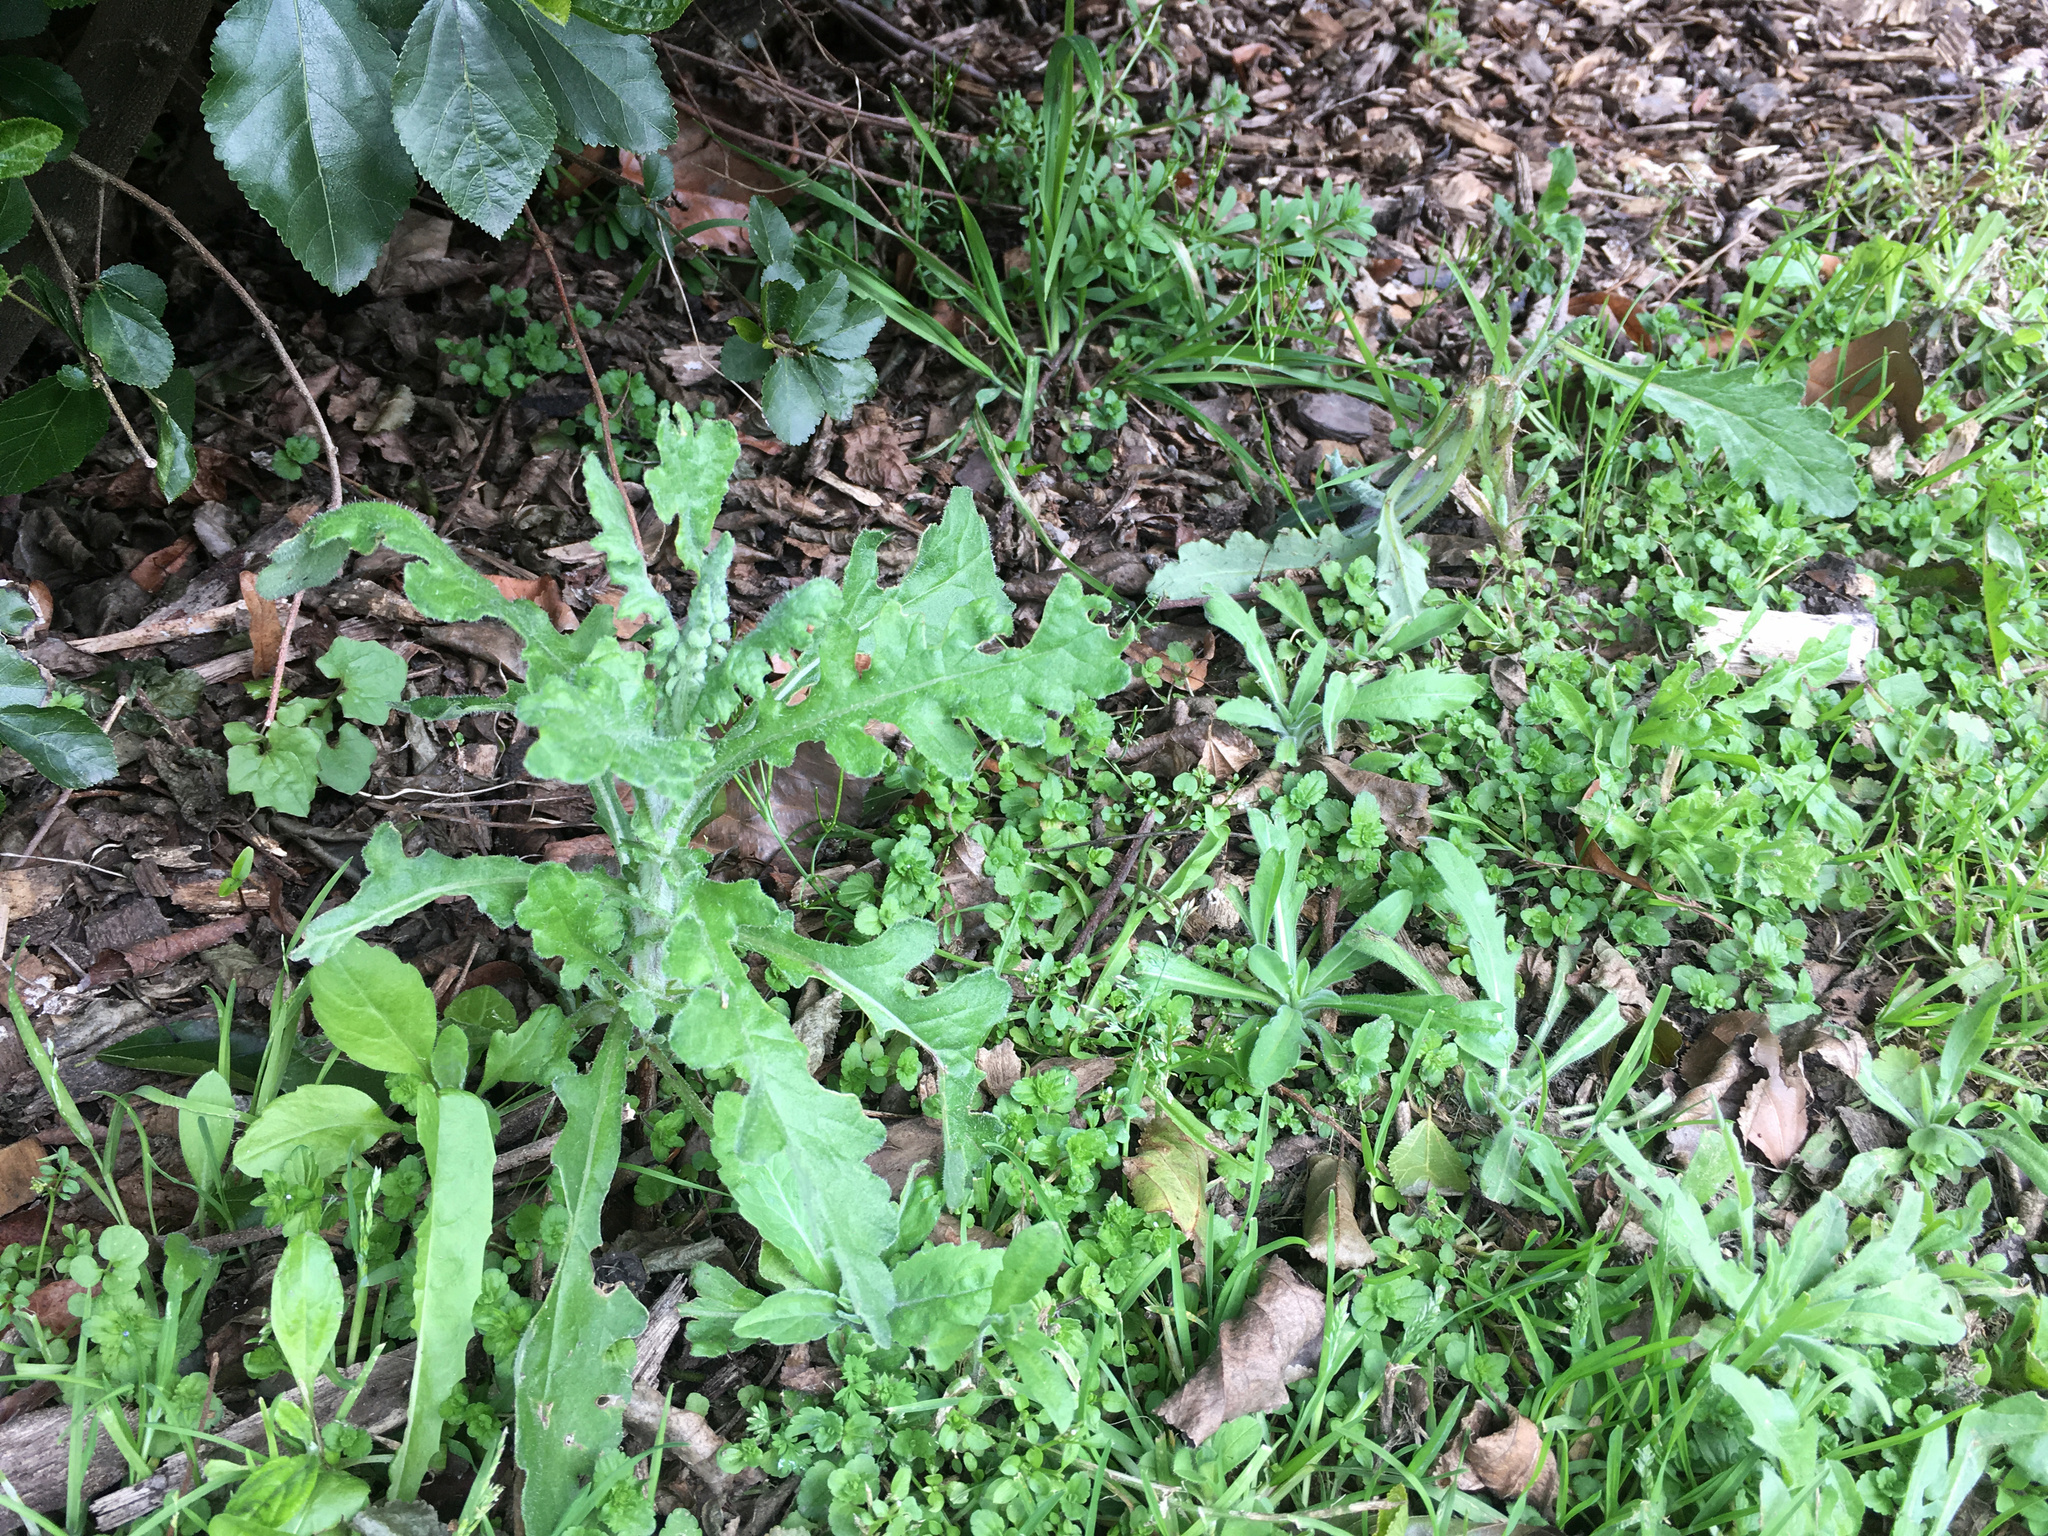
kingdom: Plantae
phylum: Tracheophyta
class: Magnoliopsida
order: Asterales
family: Asteraceae
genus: Senecio
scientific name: Senecio glomeratus
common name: Cutleaf burnweed
